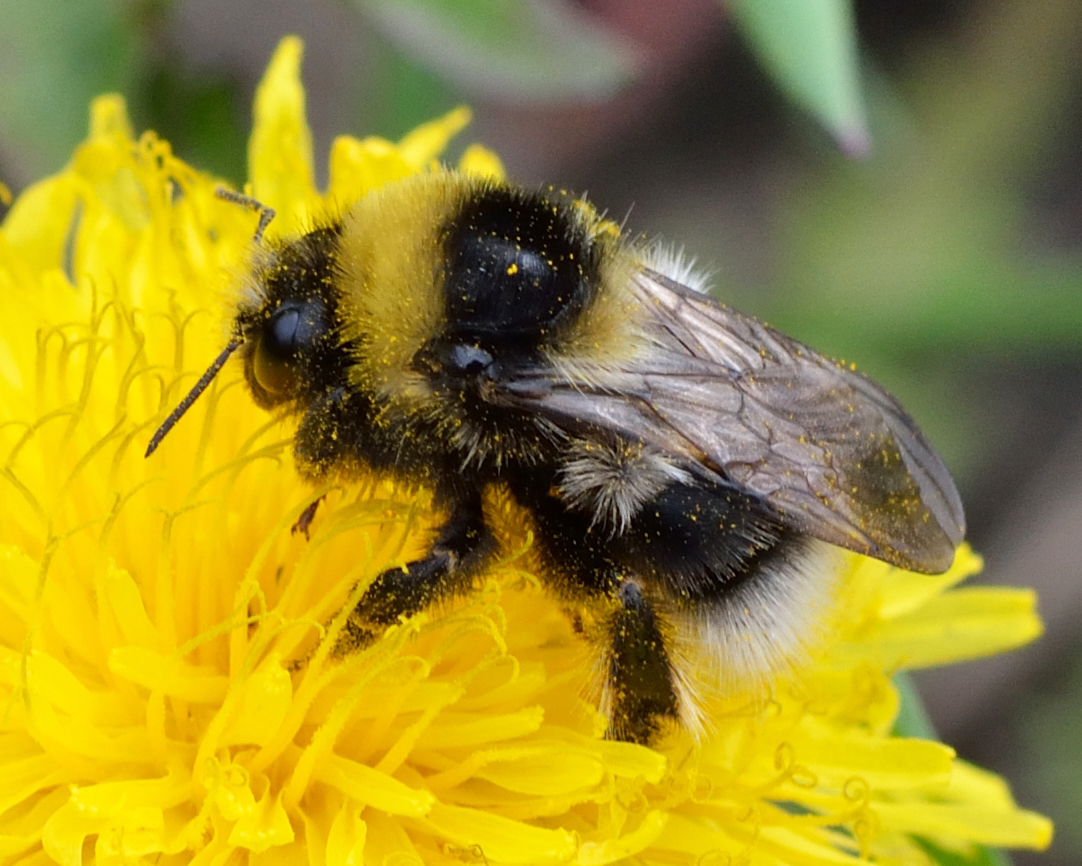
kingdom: Animalia
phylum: Arthropoda
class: Insecta
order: Hymenoptera
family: Apidae
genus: Bombus
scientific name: Bombus semenoviellus
